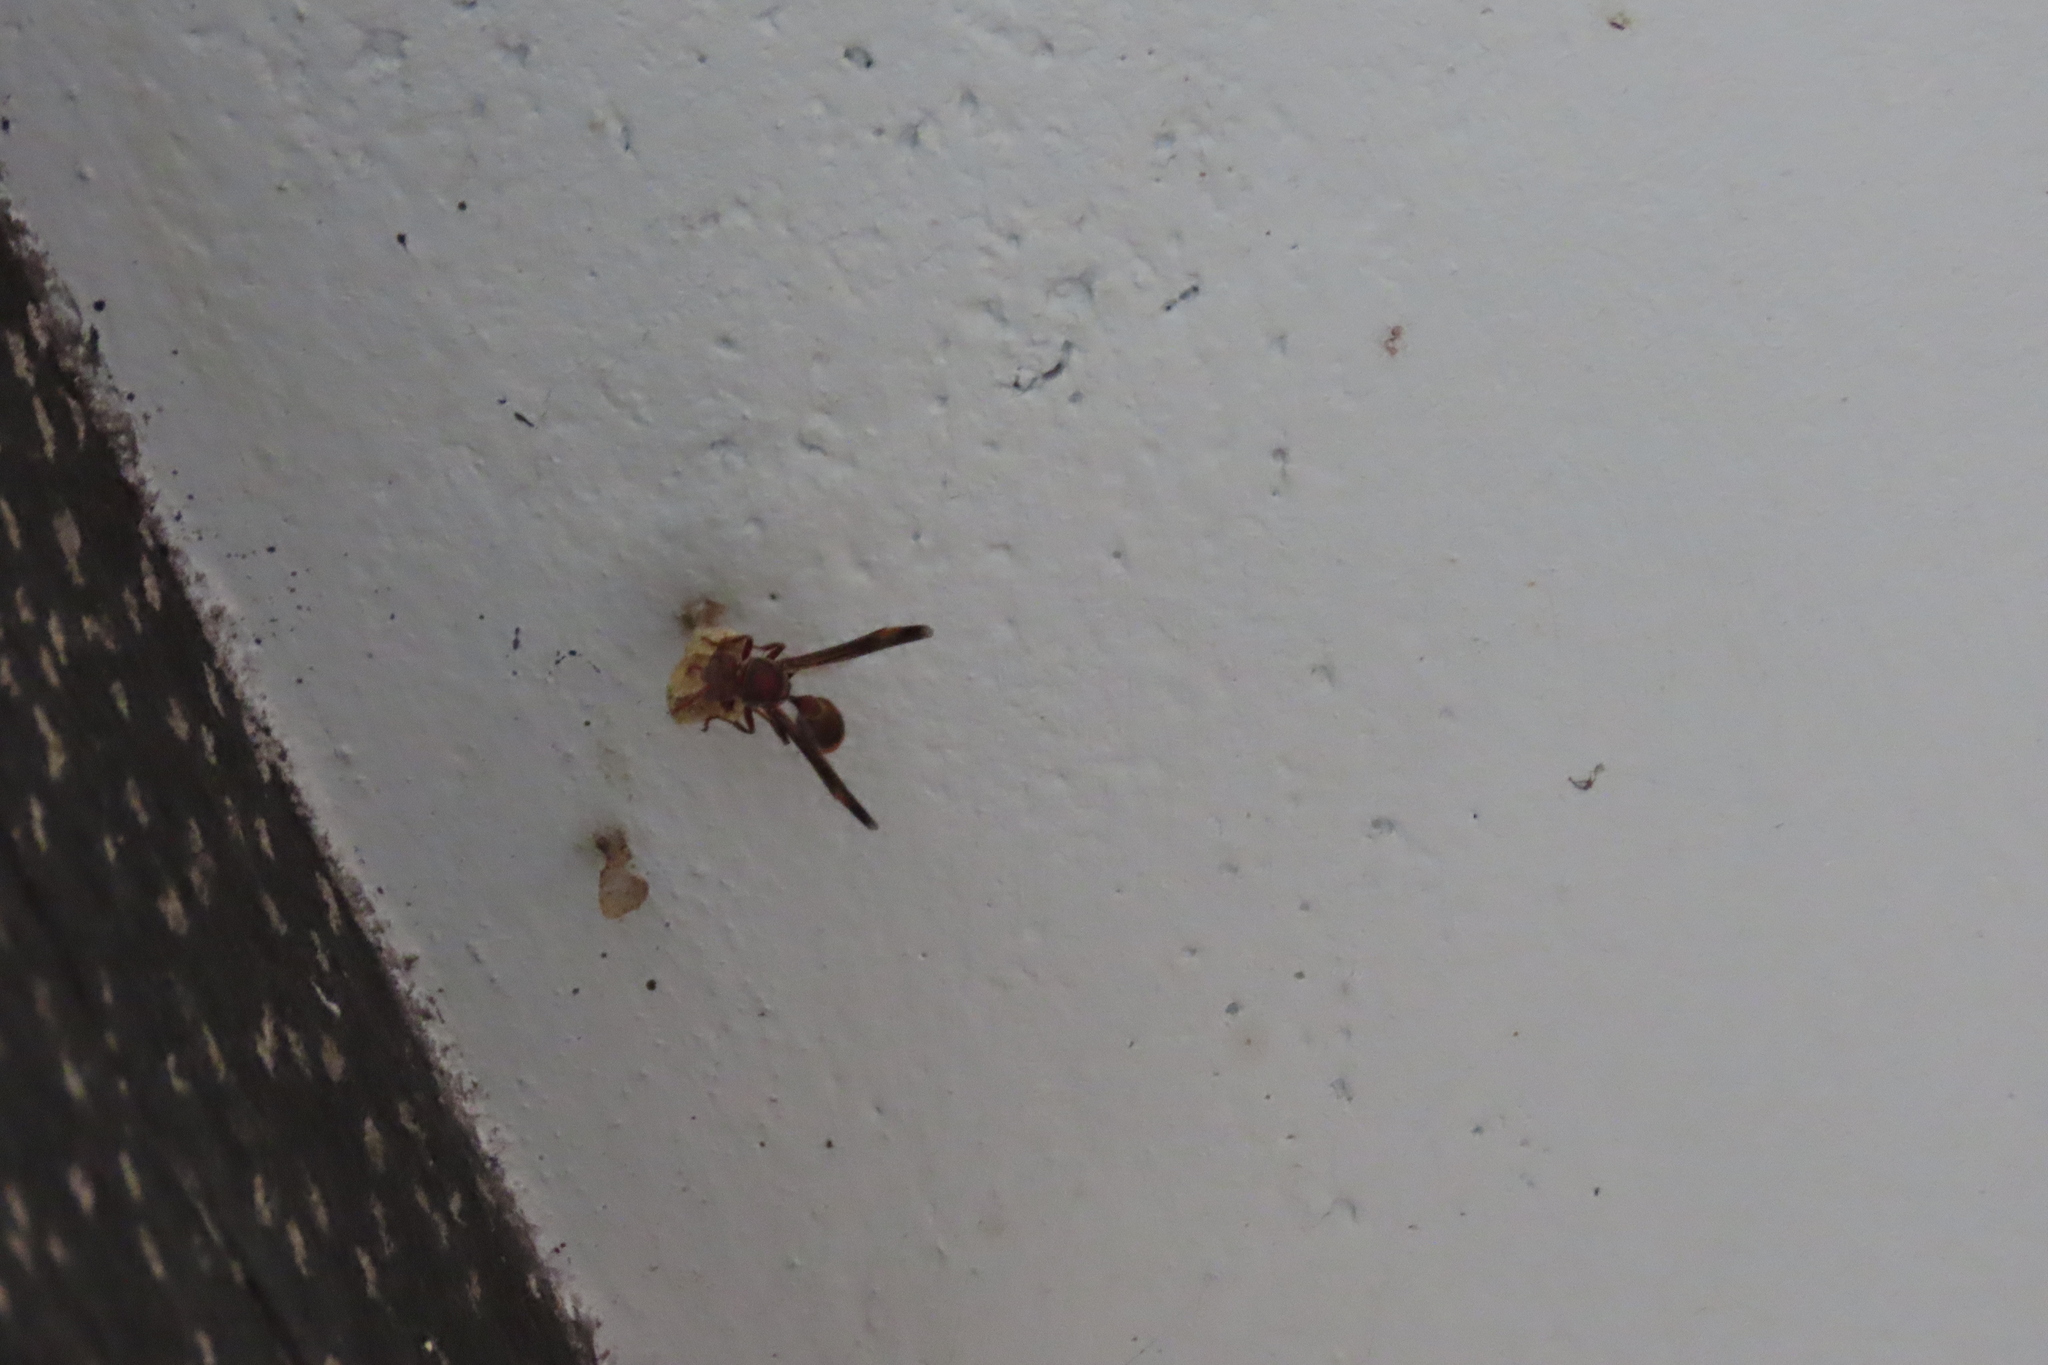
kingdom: Animalia
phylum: Arthropoda
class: Insecta
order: Hymenoptera
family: Vespidae
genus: Ropalidia
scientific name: Ropalidia
